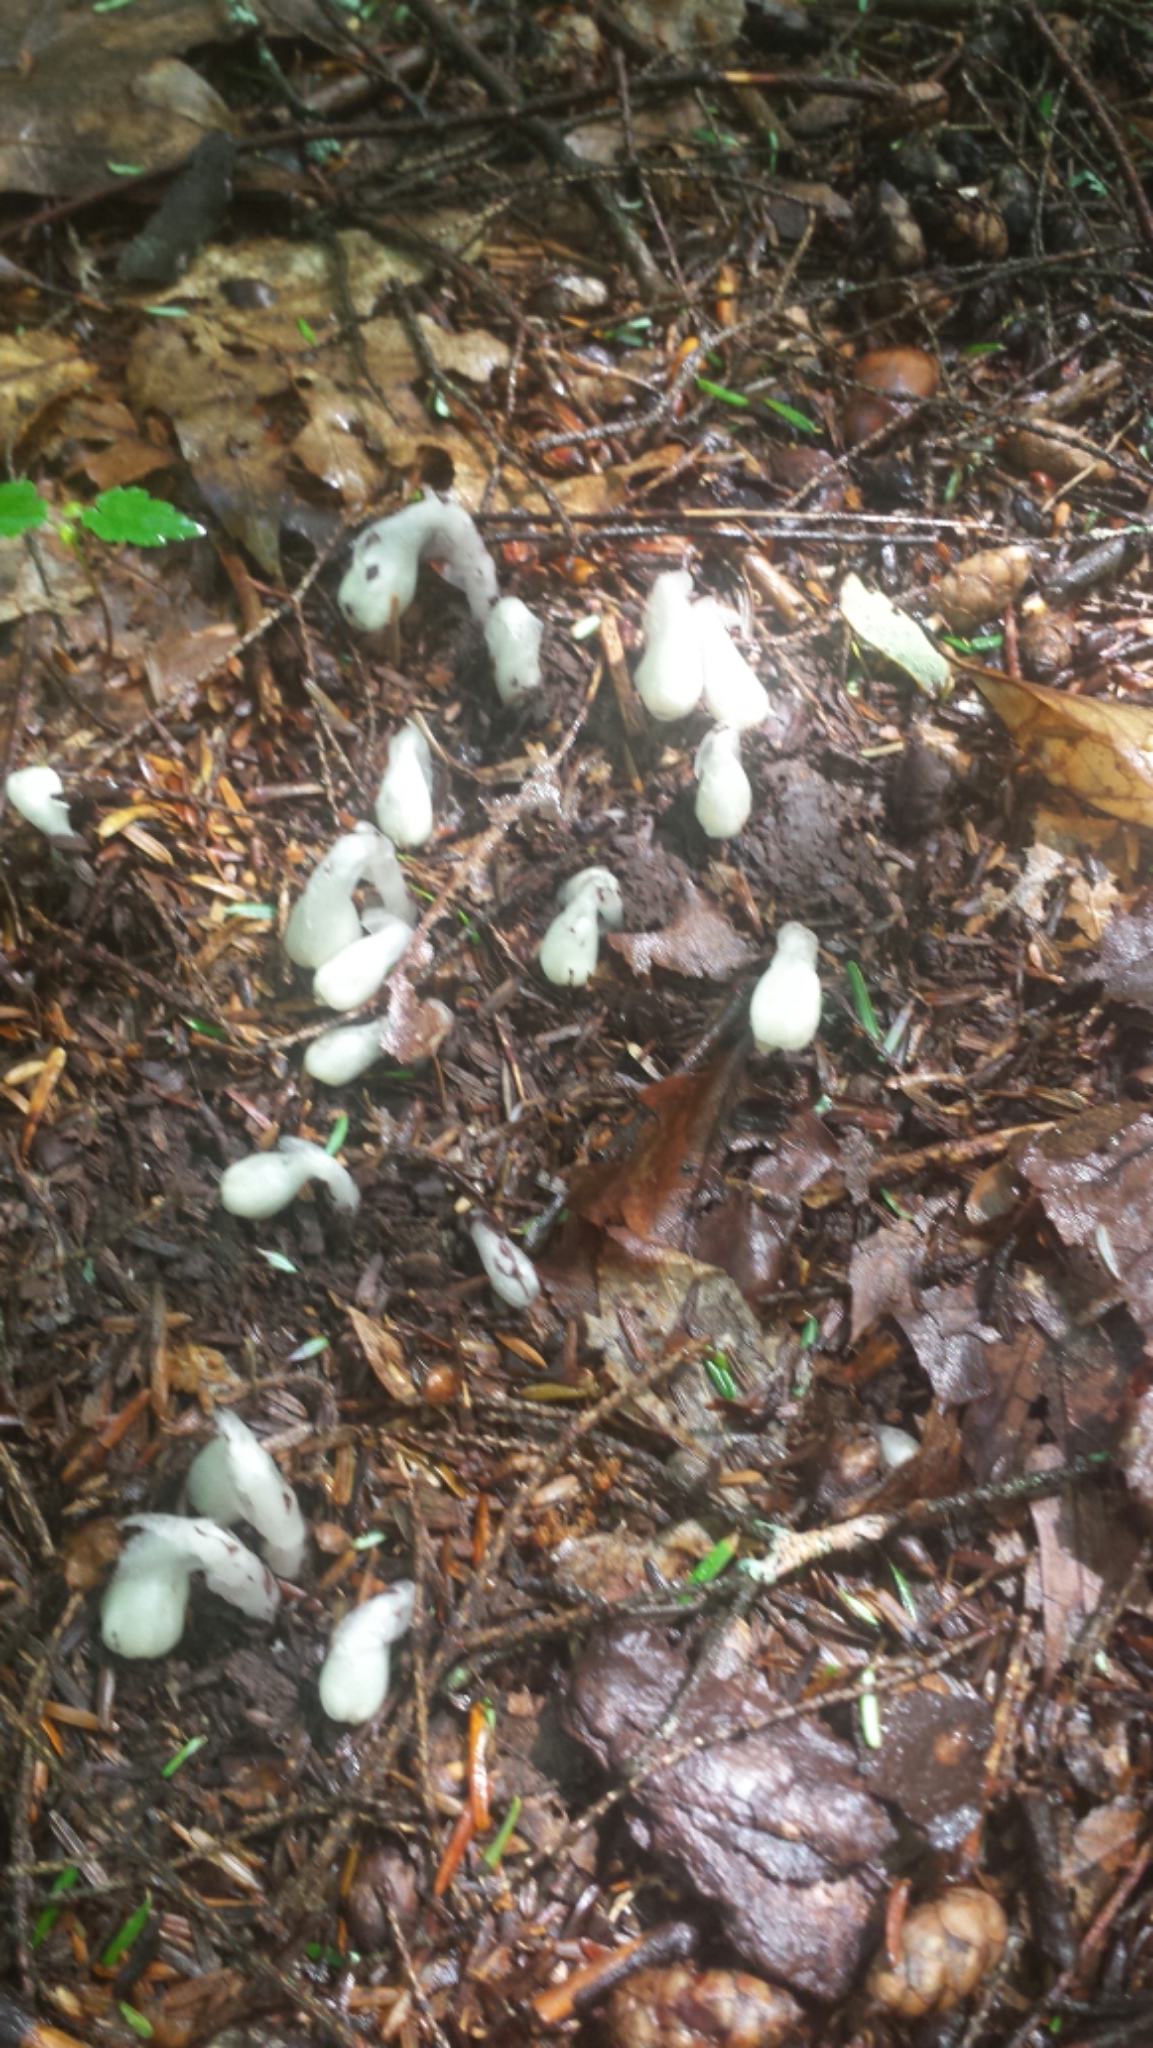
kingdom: Plantae
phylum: Tracheophyta
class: Magnoliopsida
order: Ericales
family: Ericaceae
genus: Monotropa
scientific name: Monotropa uniflora
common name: Convulsion root
